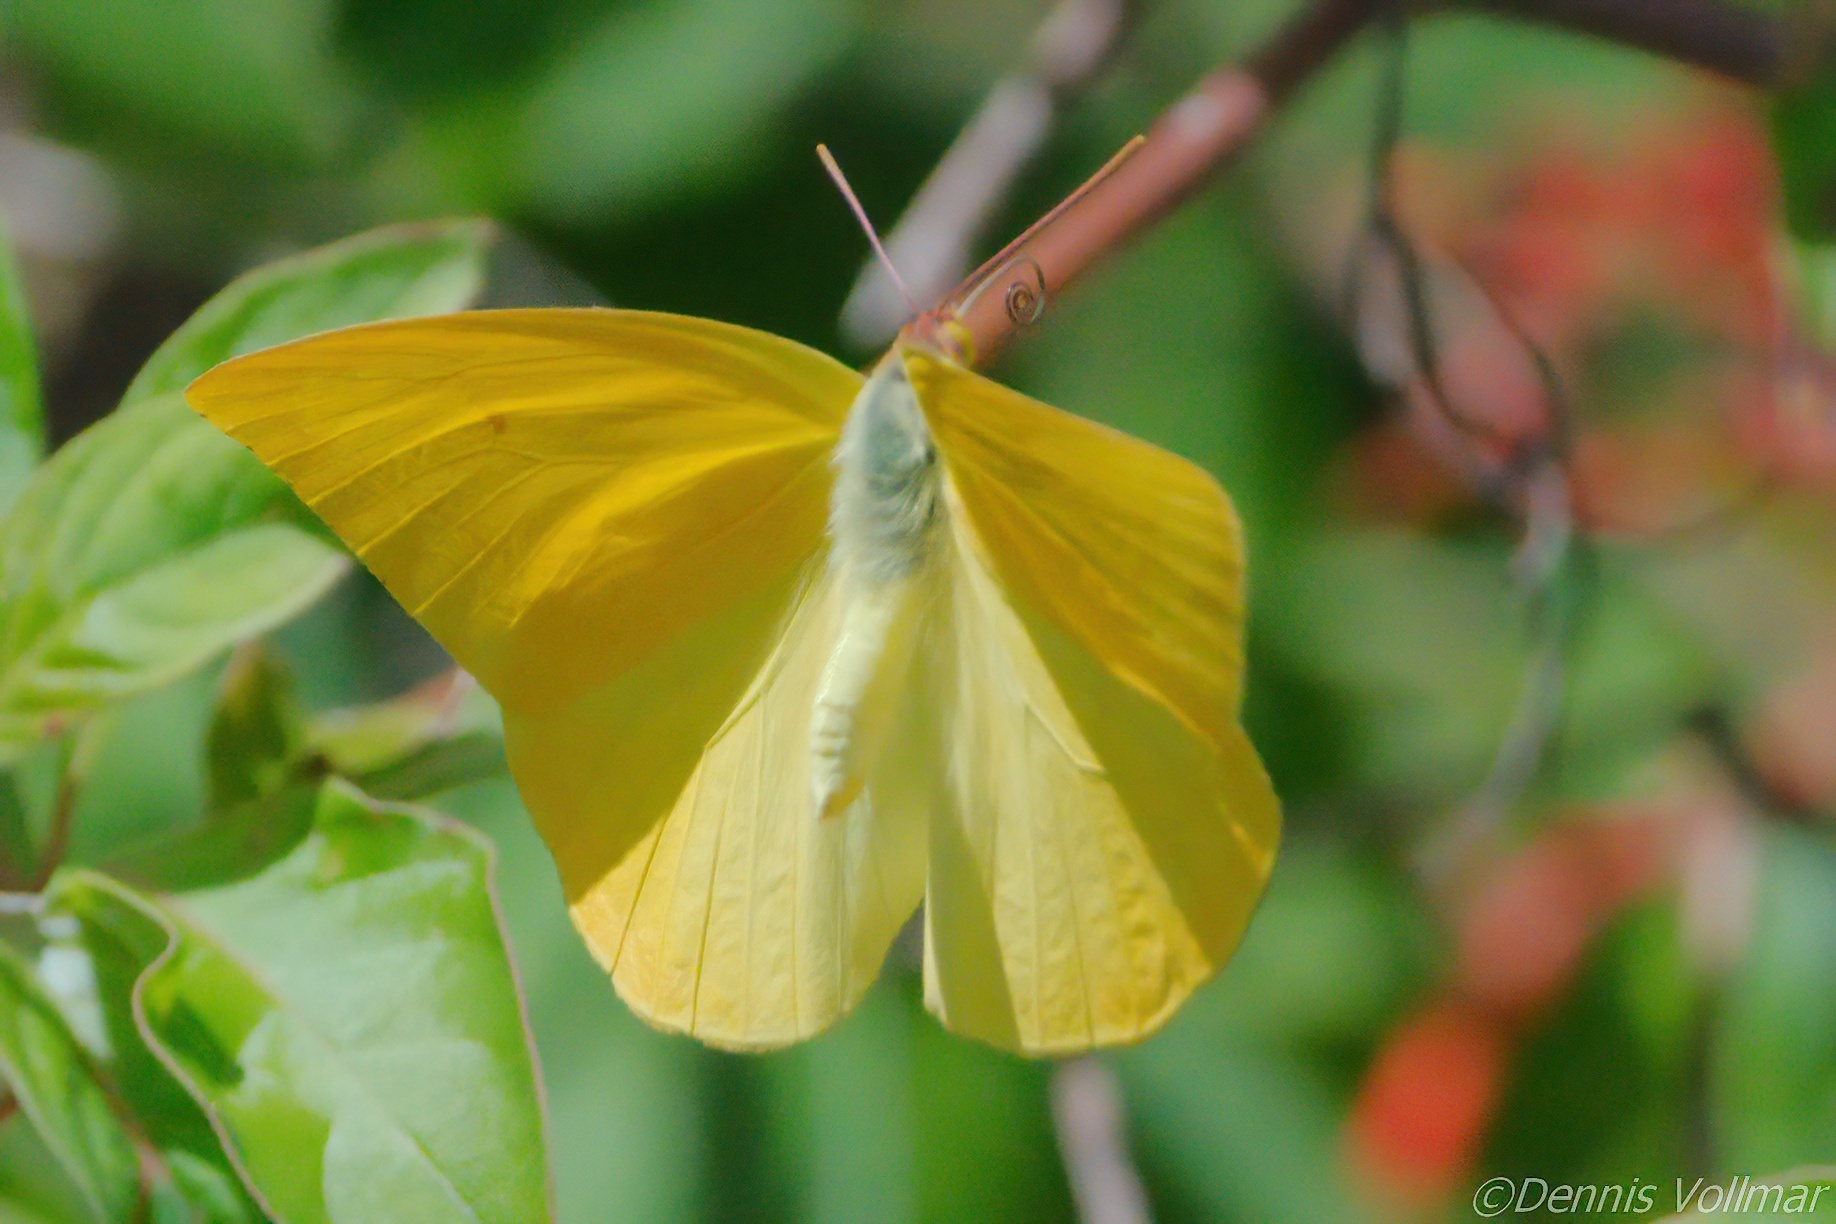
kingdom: Animalia
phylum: Arthropoda
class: Insecta
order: Lepidoptera
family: Pieridae
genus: Phoebis
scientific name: Phoebis agarithe
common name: Large orange sulphur
